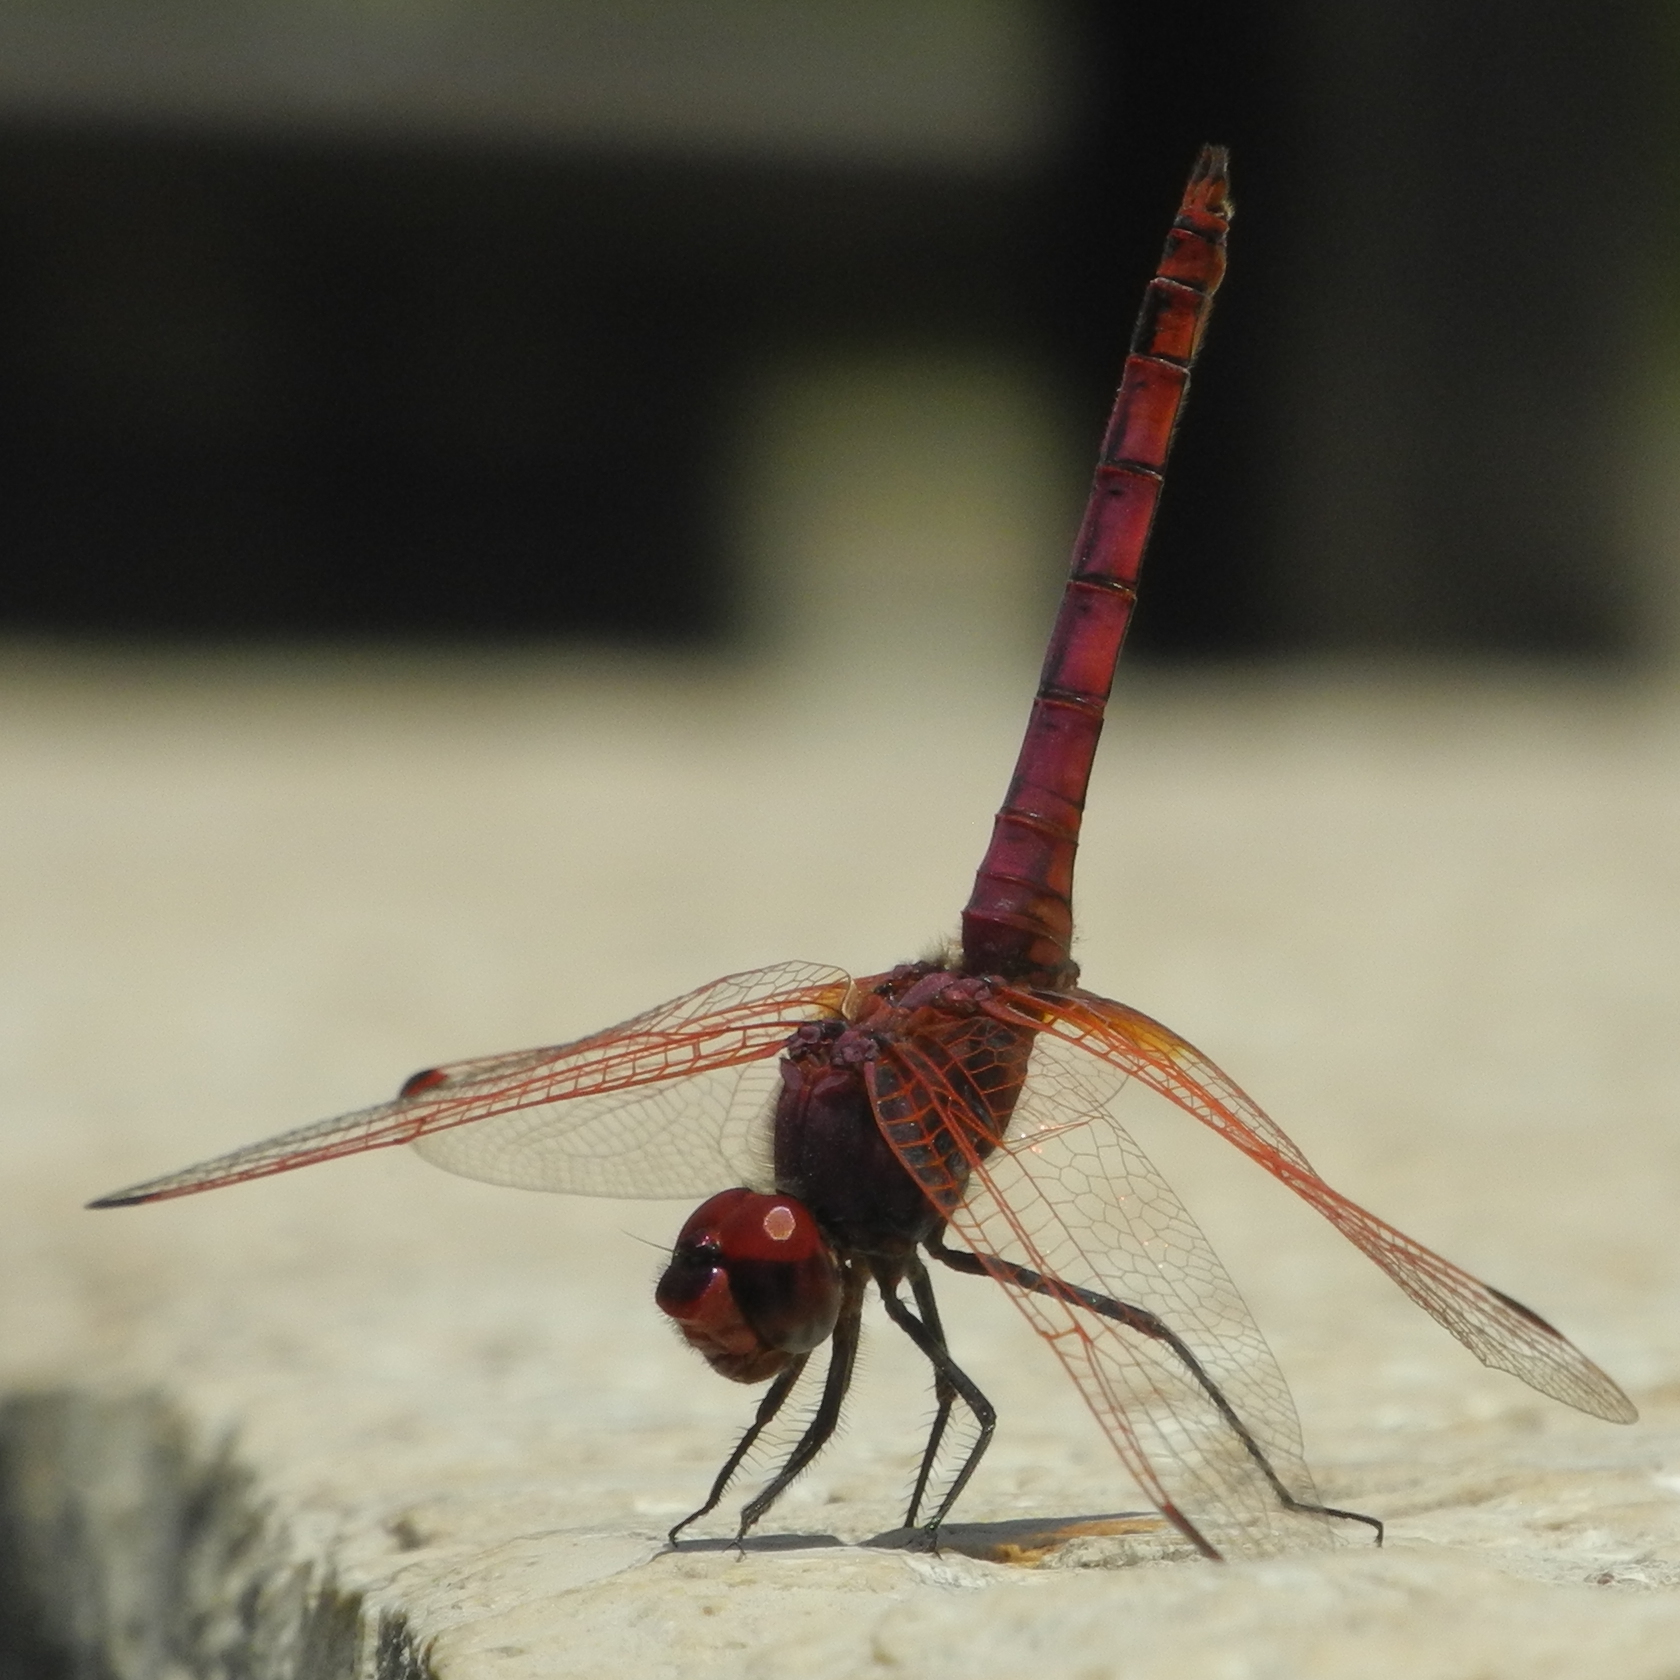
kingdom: Animalia
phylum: Arthropoda
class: Insecta
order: Odonata
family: Libellulidae
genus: Trithemis
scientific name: Trithemis annulata
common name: Violet dropwing
